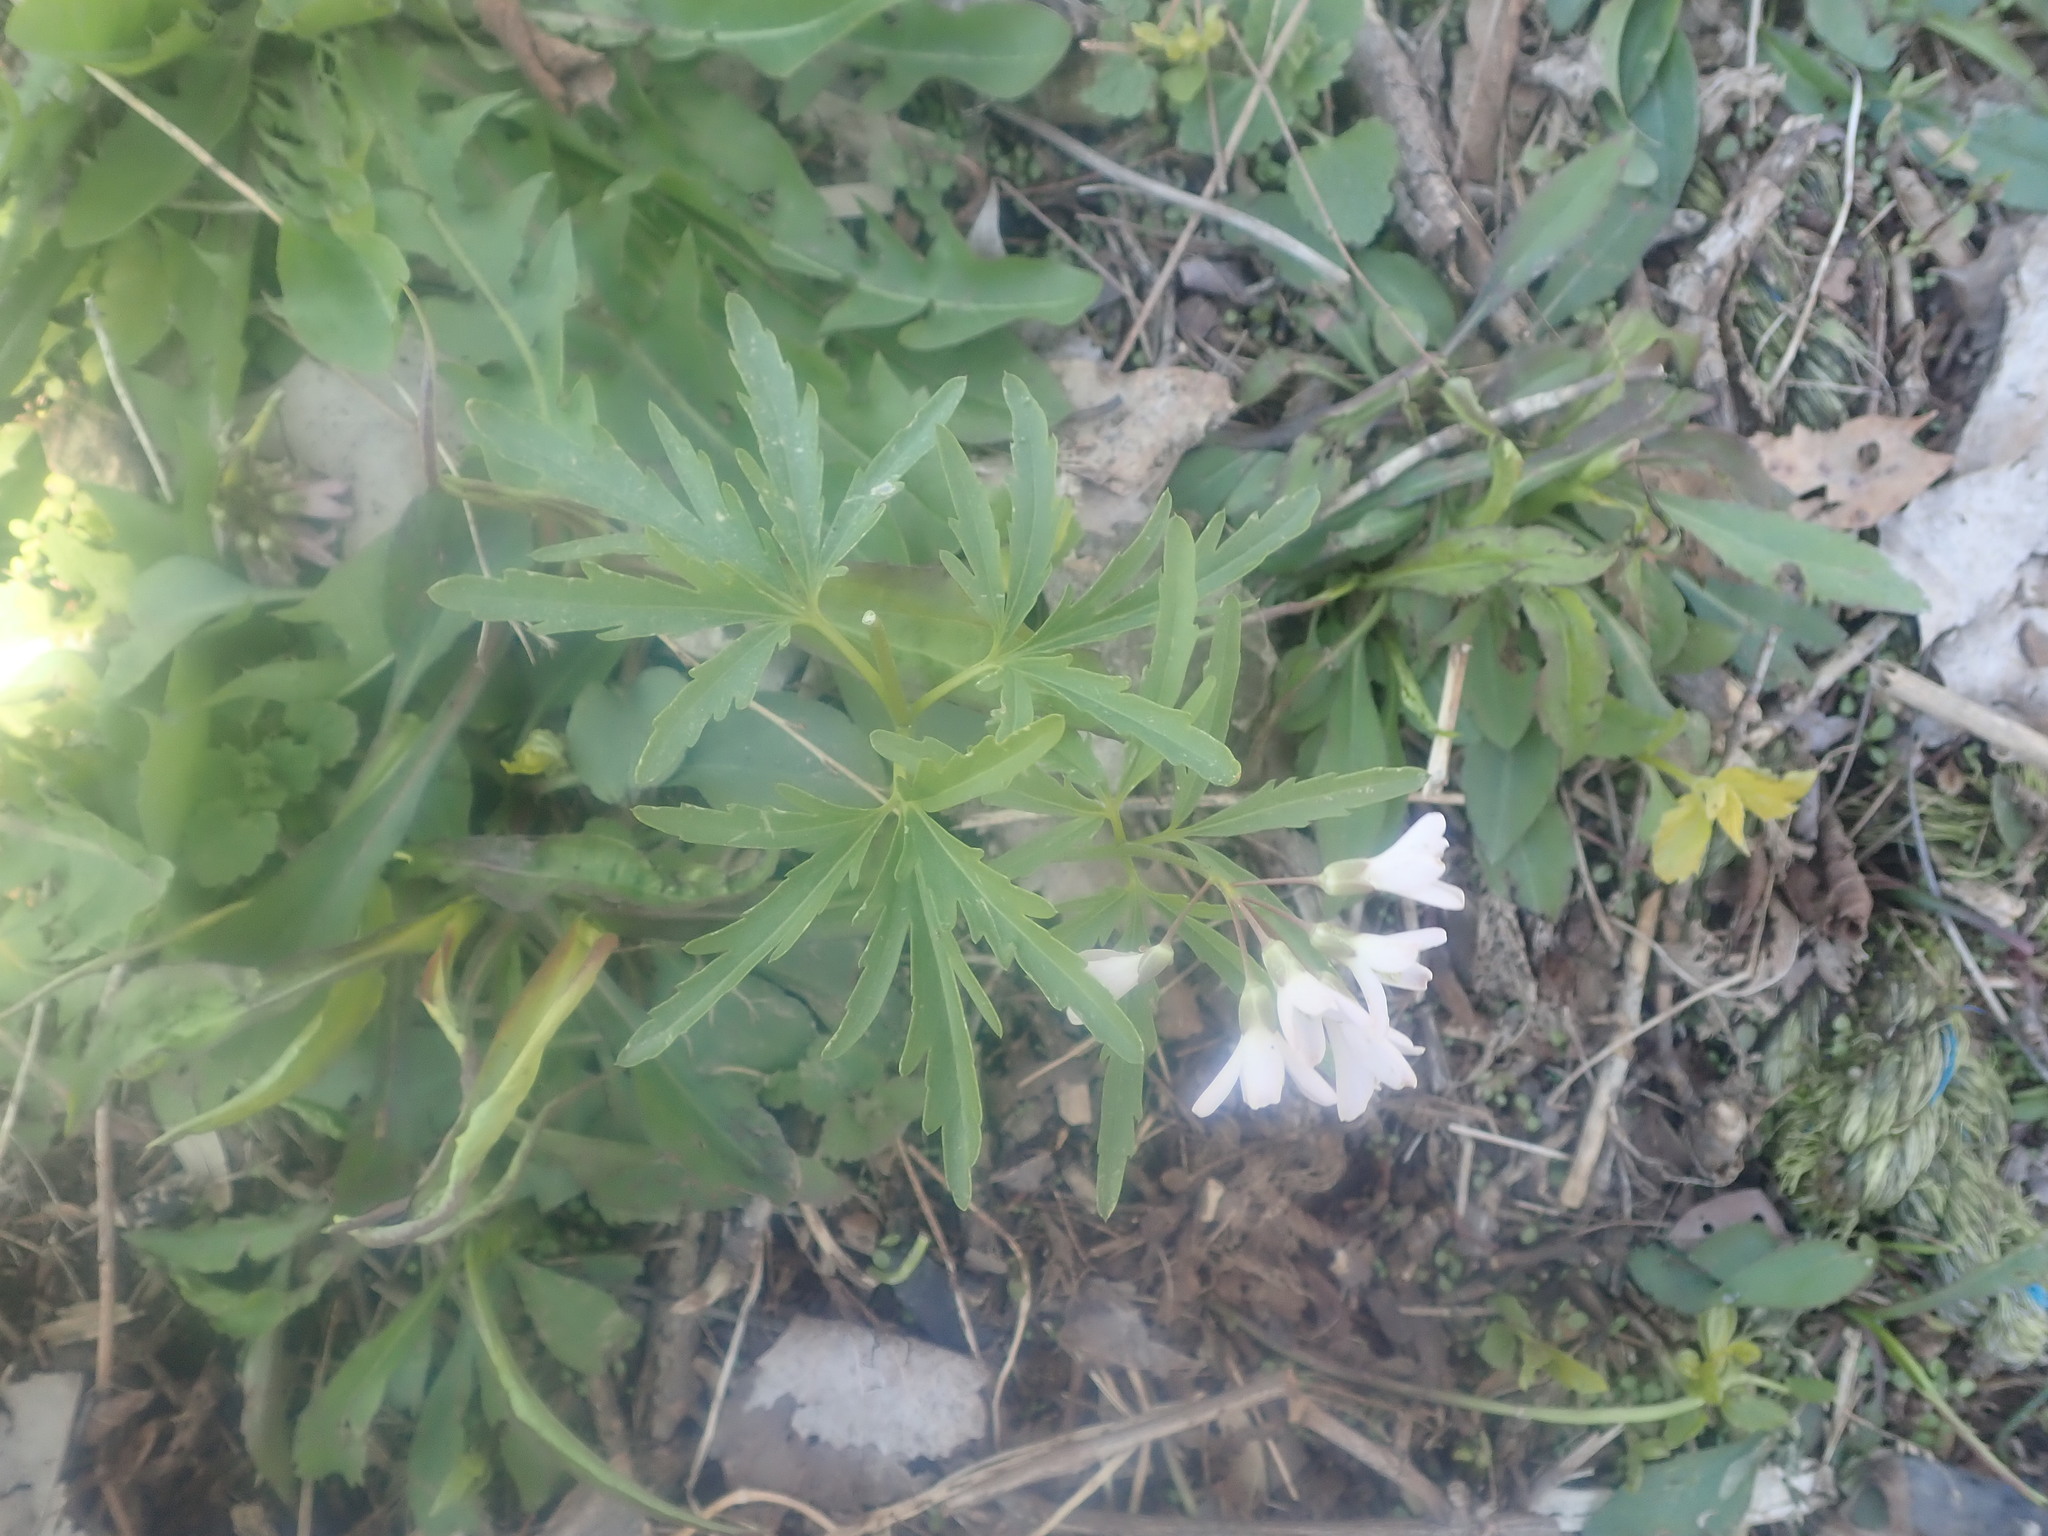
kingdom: Plantae
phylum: Tracheophyta
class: Magnoliopsida
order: Brassicales
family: Brassicaceae
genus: Cardamine
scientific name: Cardamine concatenata
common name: Cut-leaf toothcup
